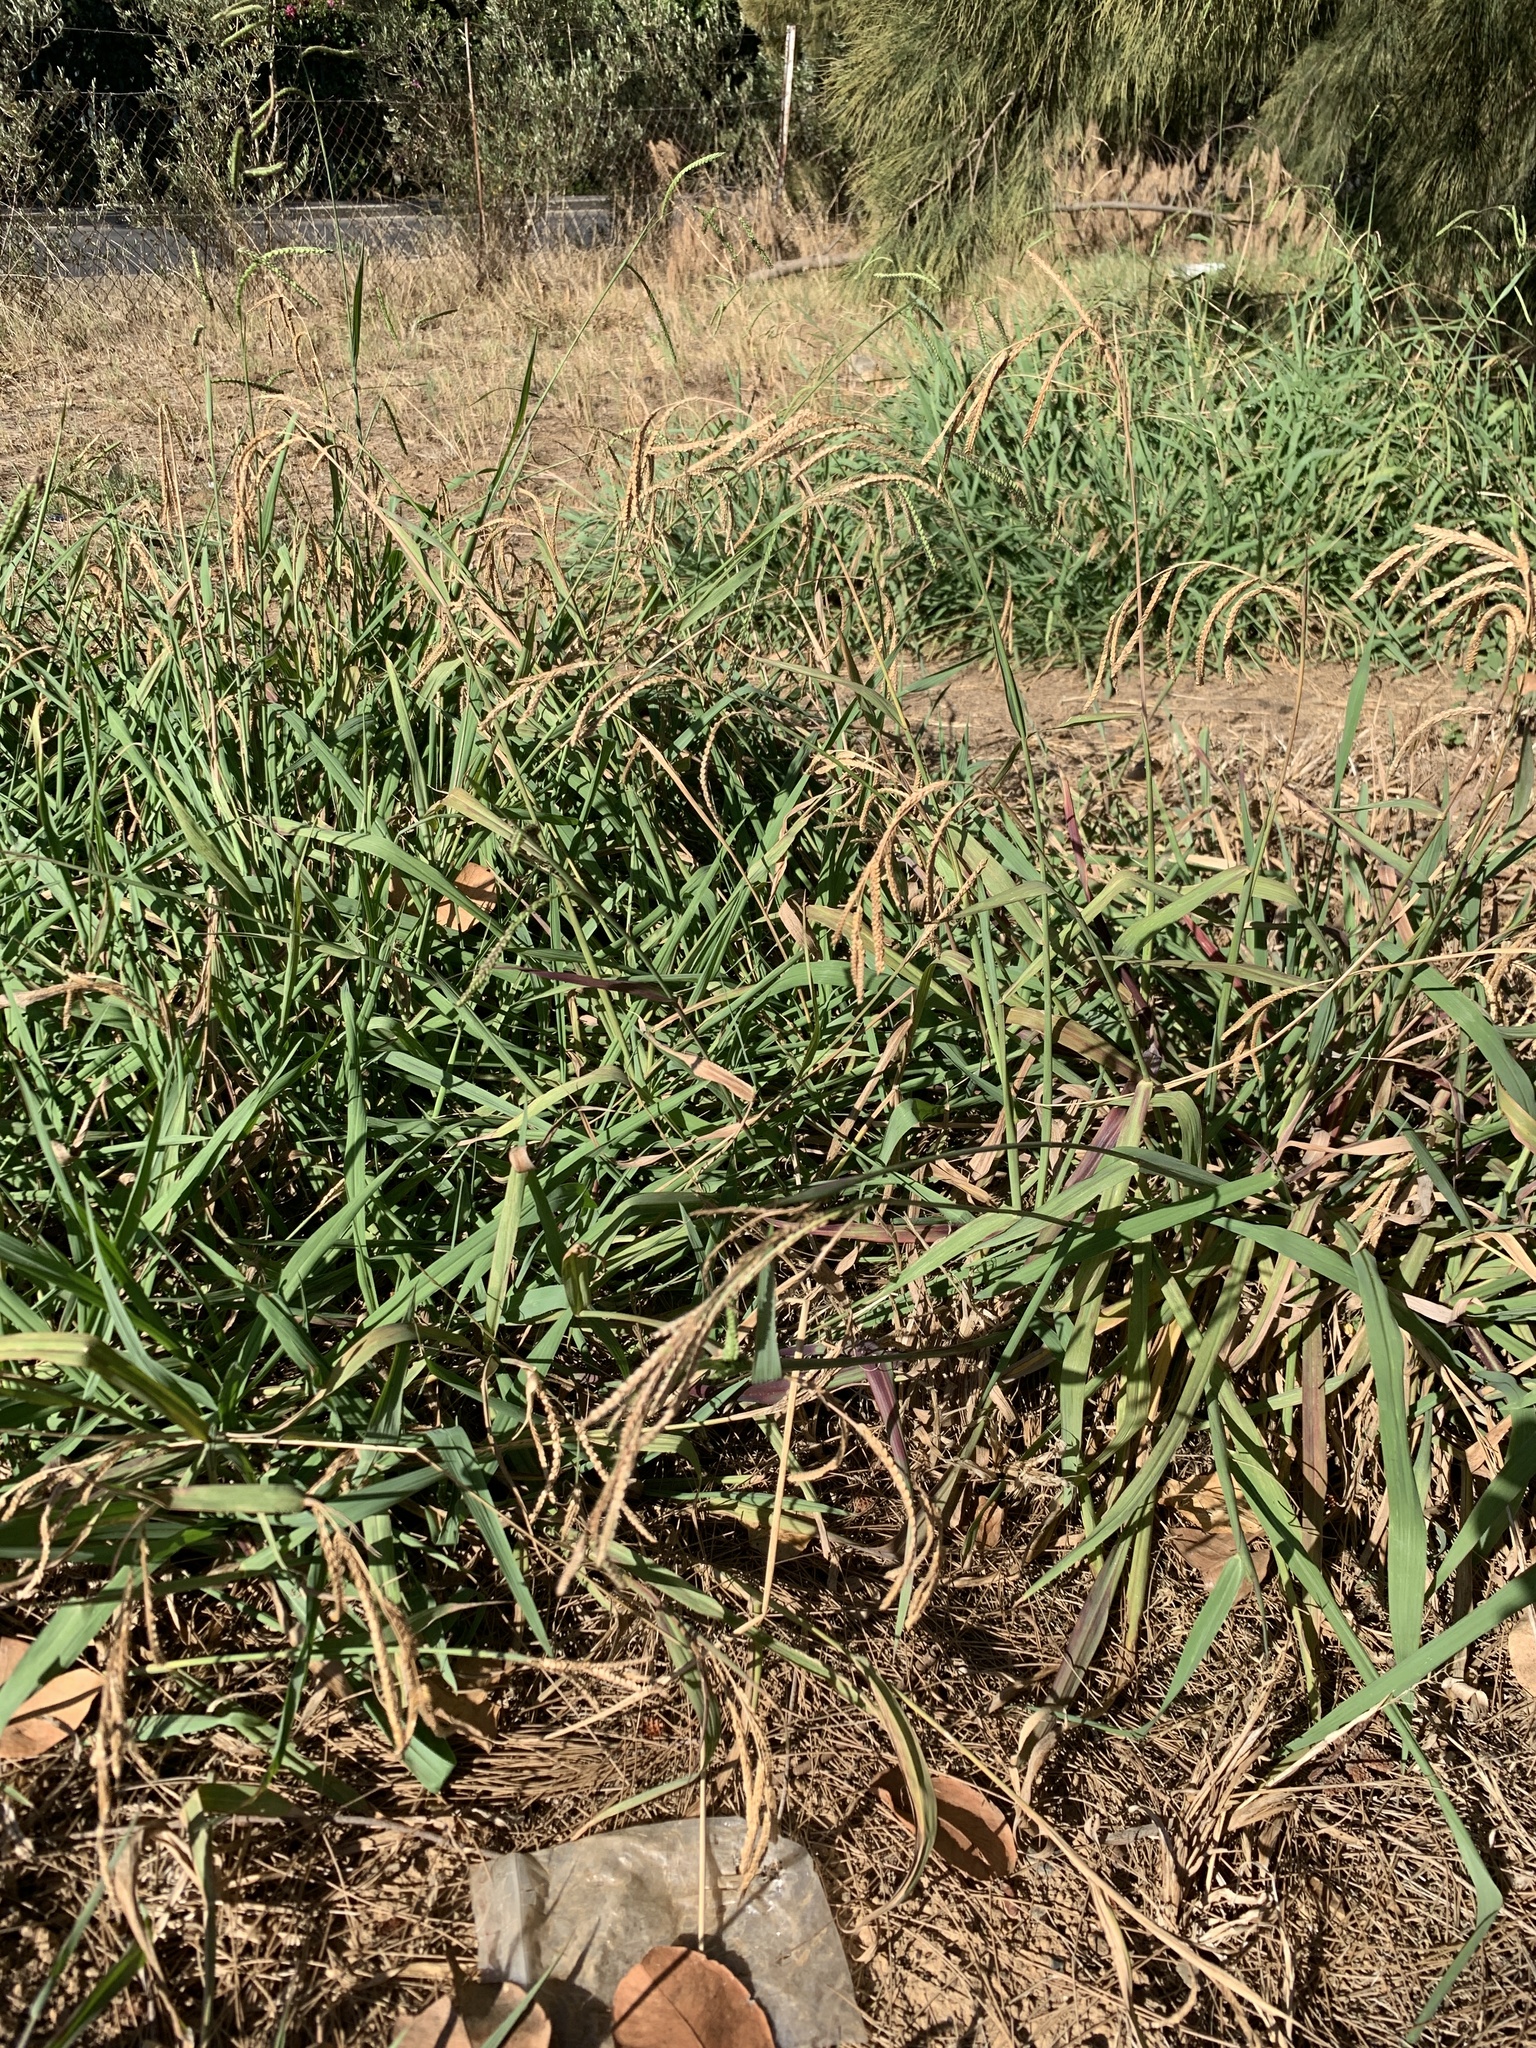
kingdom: Plantae
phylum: Tracheophyta
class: Liliopsida
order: Poales
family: Poaceae
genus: Paspalum
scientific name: Paspalum dilatatum
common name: Dallisgrass
